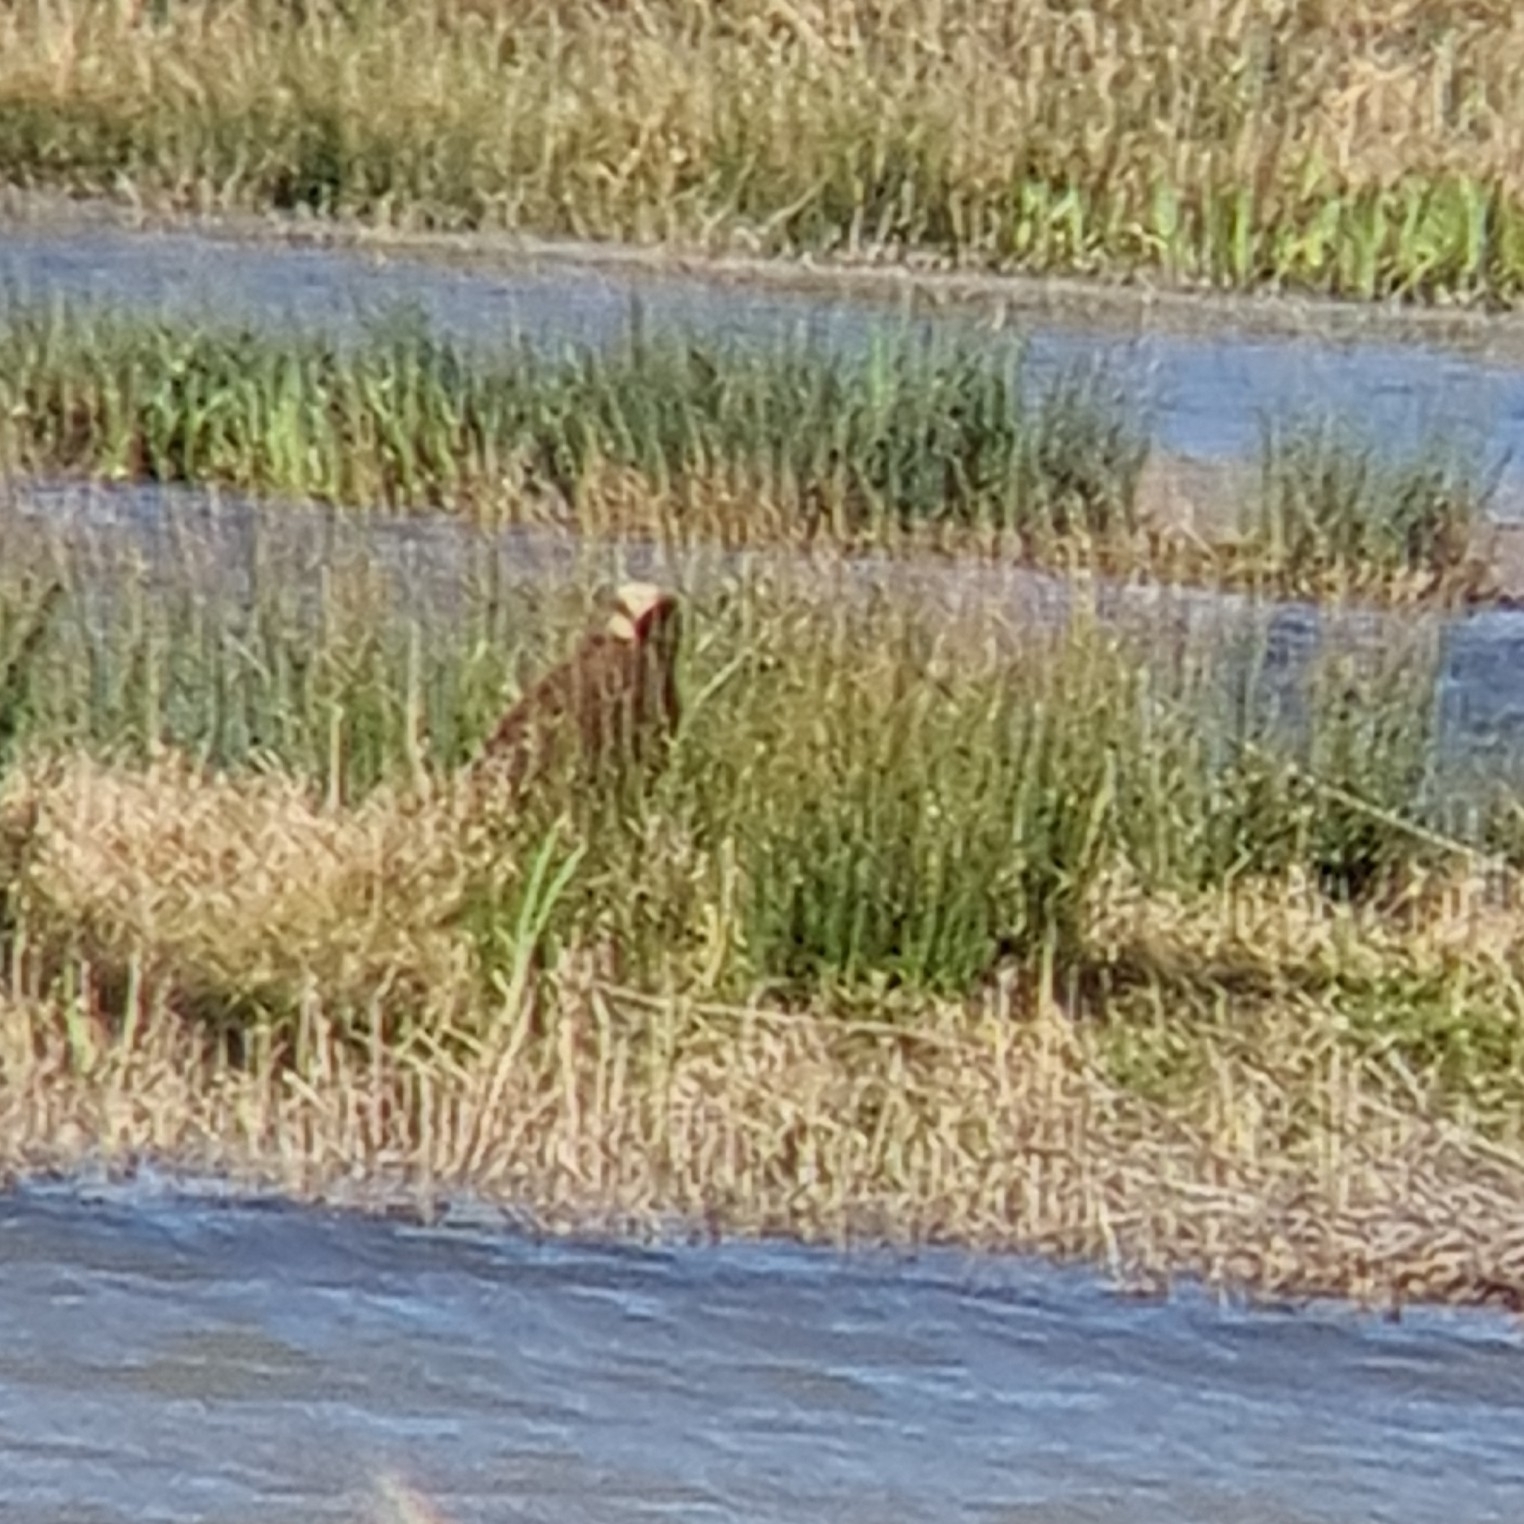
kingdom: Animalia
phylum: Chordata
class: Aves
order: Accipitriformes
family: Accipitridae
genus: Circus
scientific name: Circus aeruginosus
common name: Western marsh harrier
